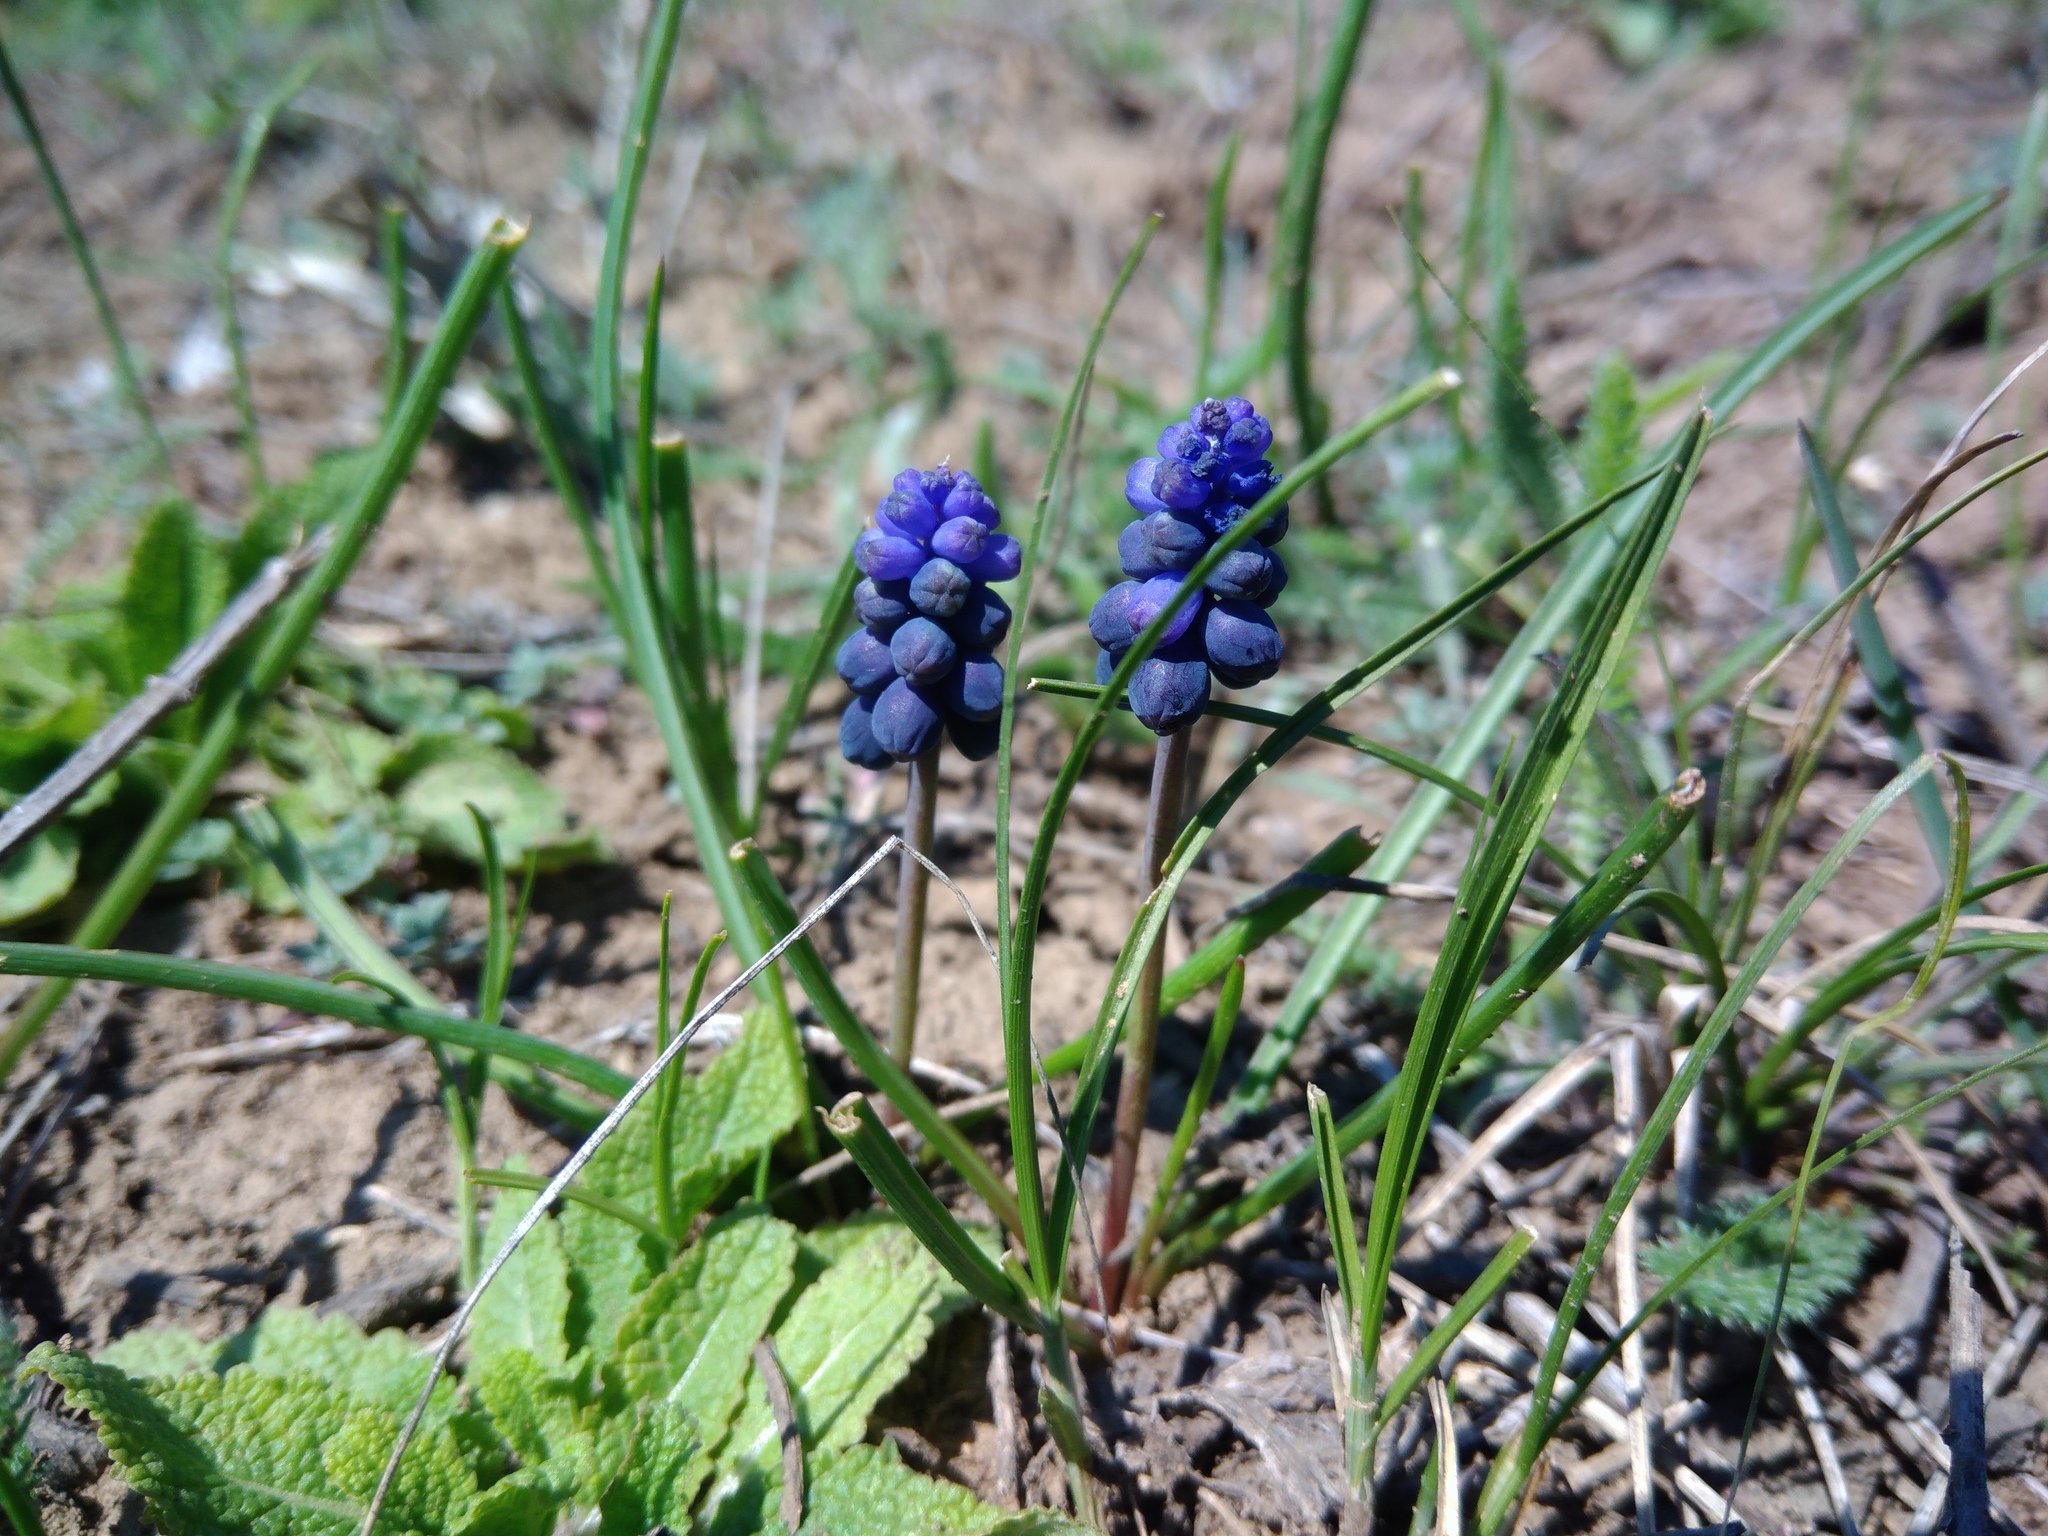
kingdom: Plantae
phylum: Tracheophyta
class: Liliopsida
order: Asparagales
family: Asparagaceae
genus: Muscari
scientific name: Muscari neglectum
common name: Grape-hyacinth
